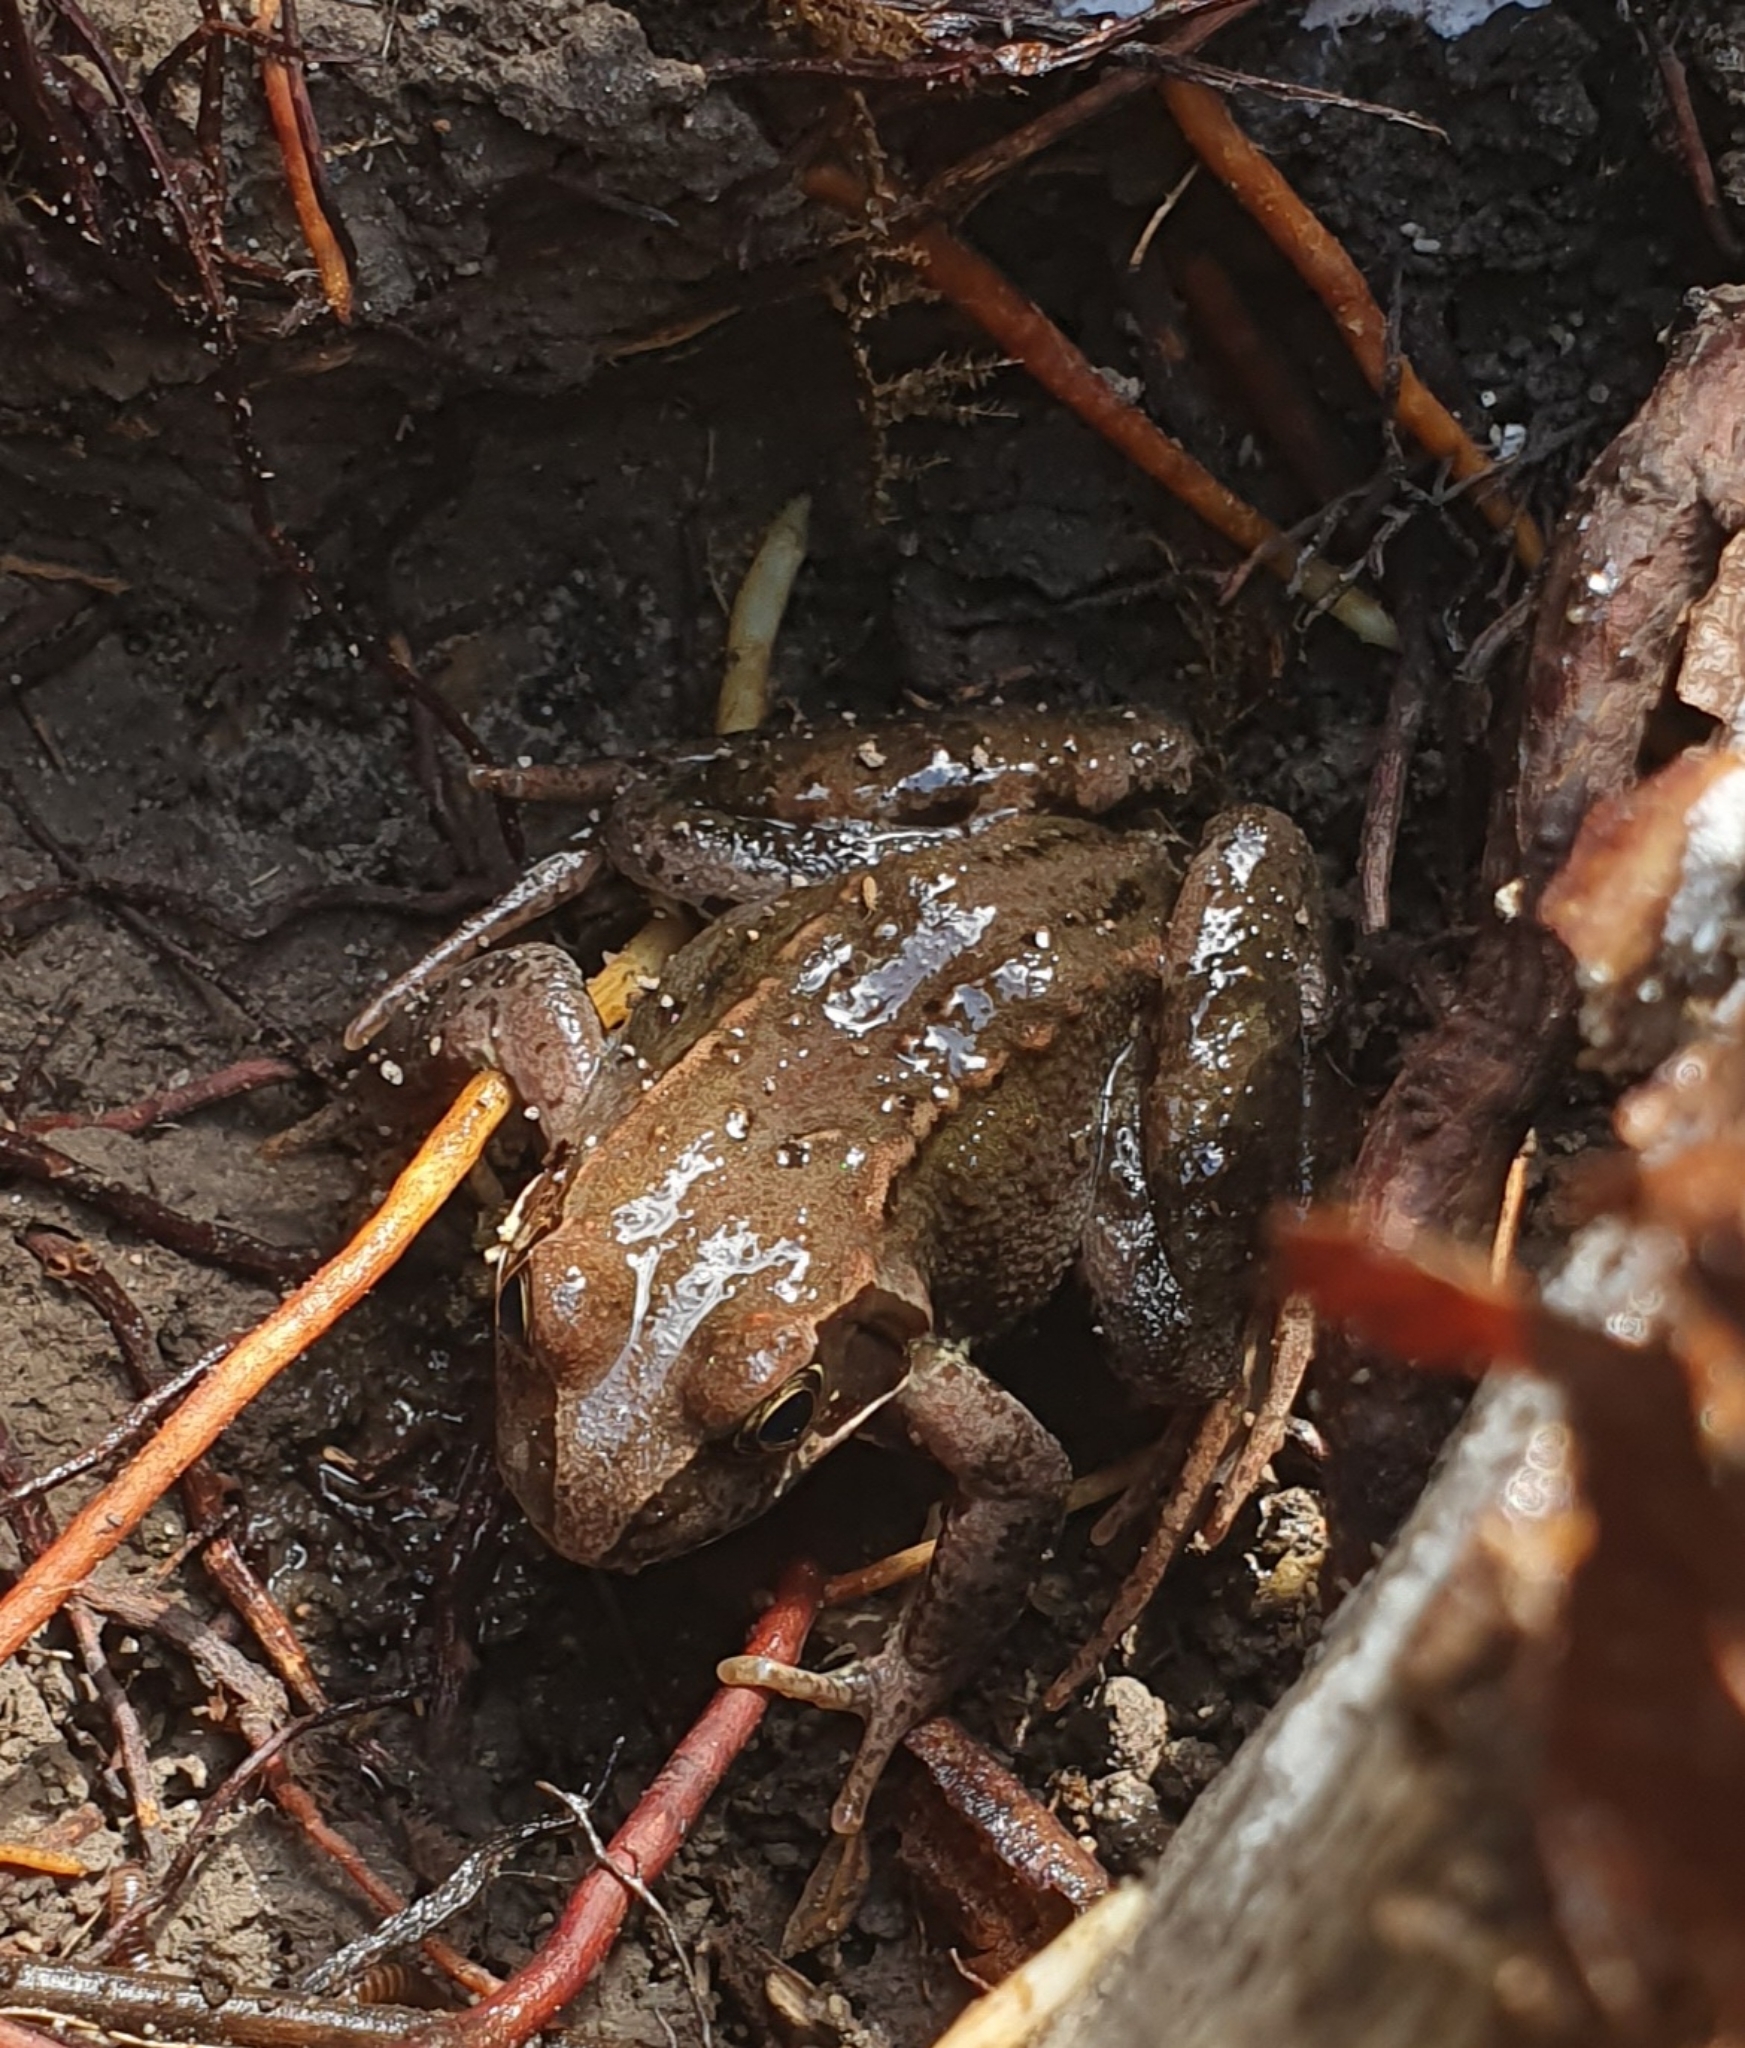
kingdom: Animalia
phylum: Chordata
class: Amphibia
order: Anura
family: Ranidae
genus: Rana
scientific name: Rana temporaria
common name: Common frog
